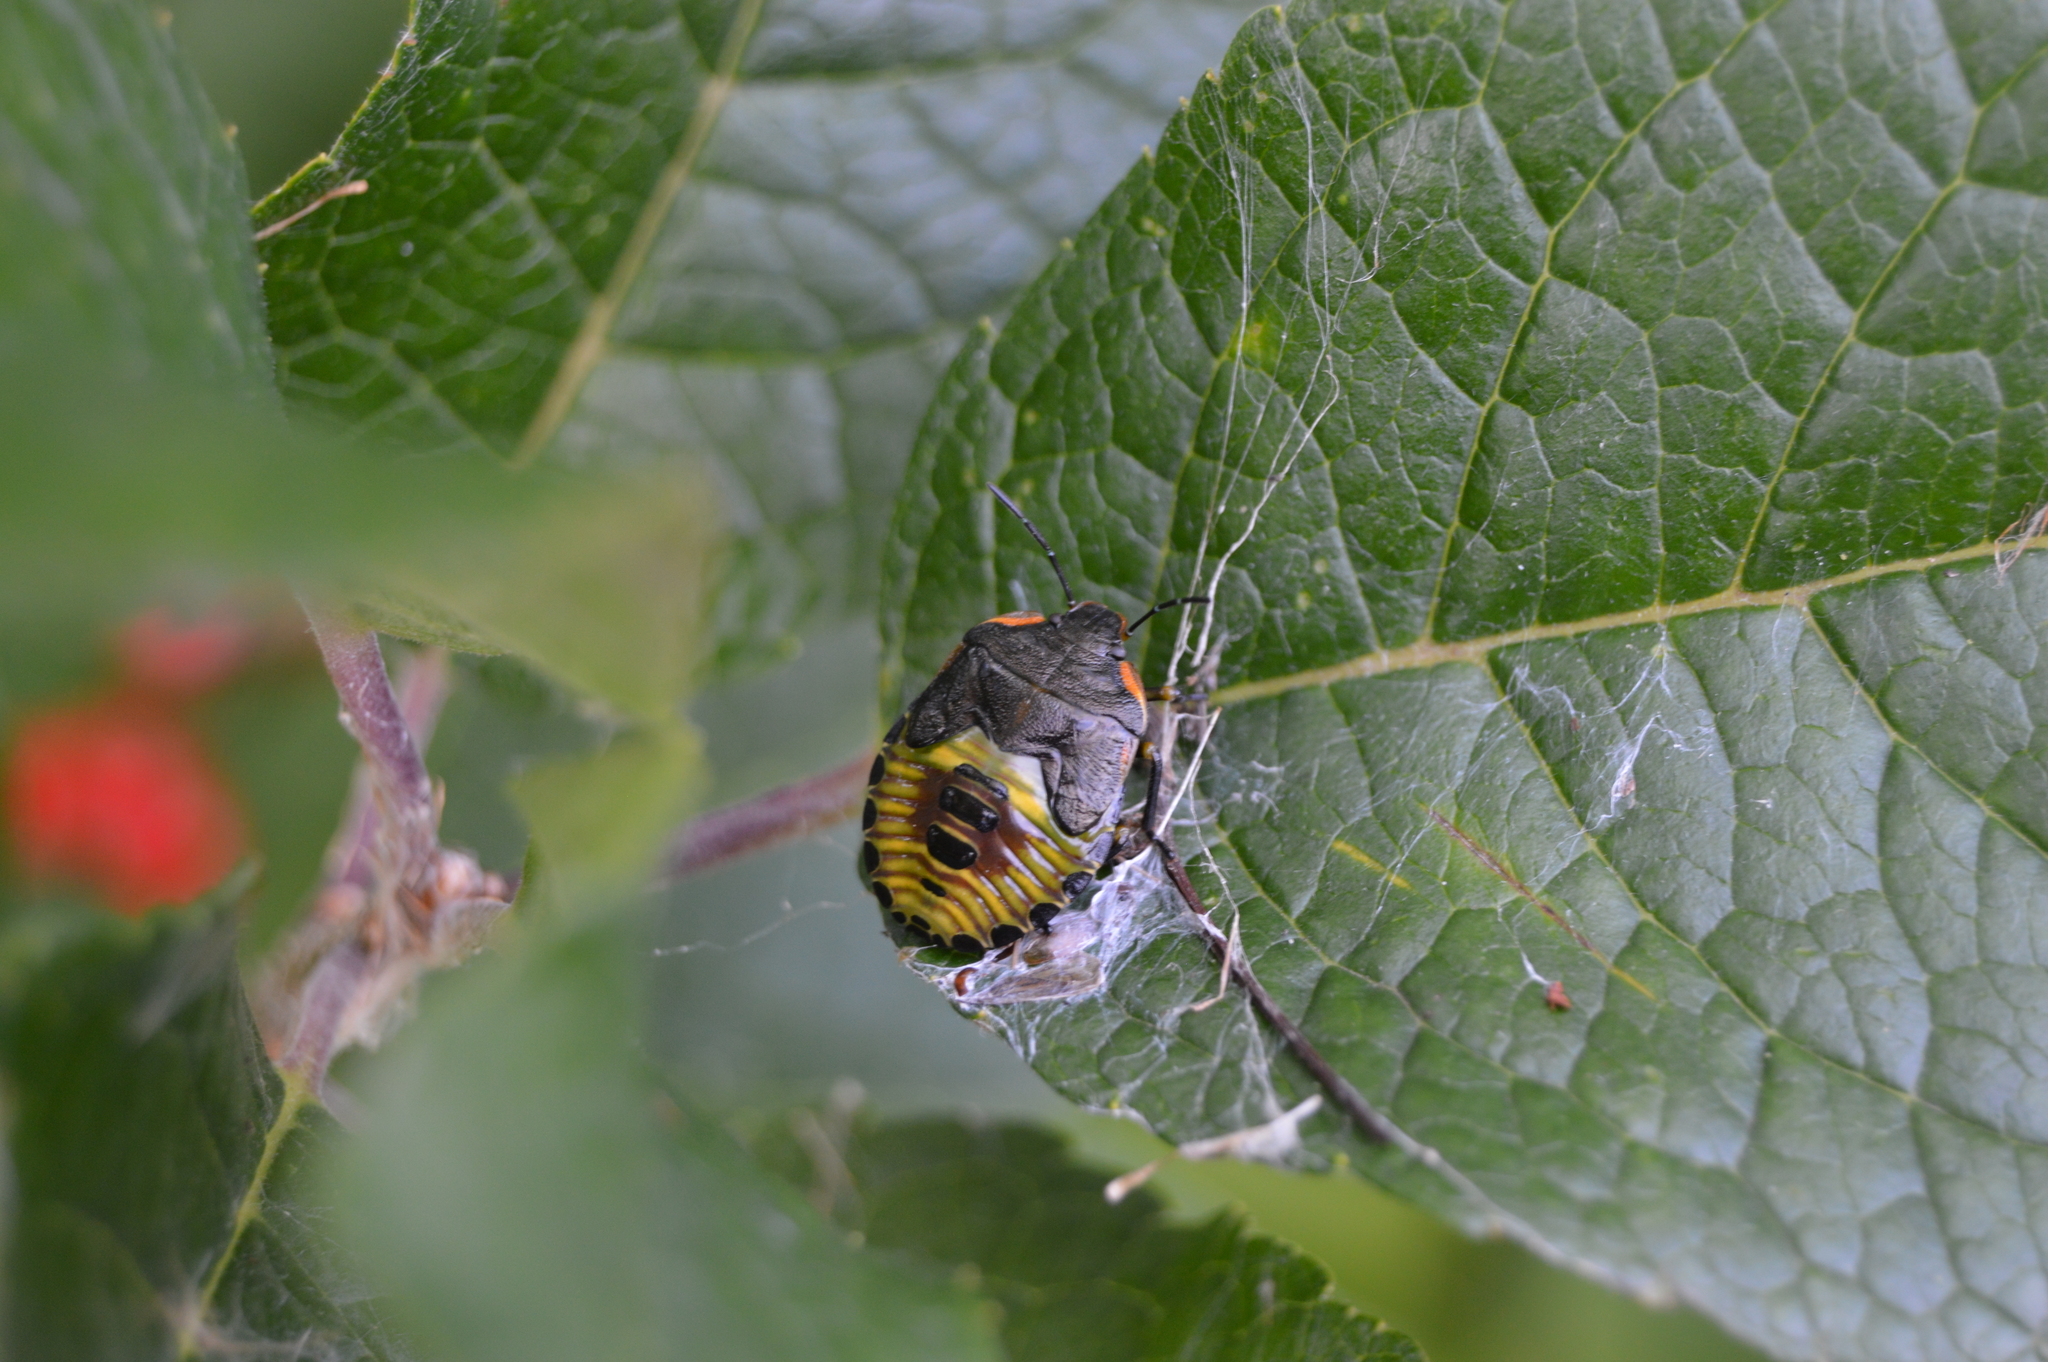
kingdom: Animalia
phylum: Arthropoda
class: Insecta
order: Hemiptera
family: Pentatomidae
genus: Chinavia
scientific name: Chinavia hilaris
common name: Green stink bug
